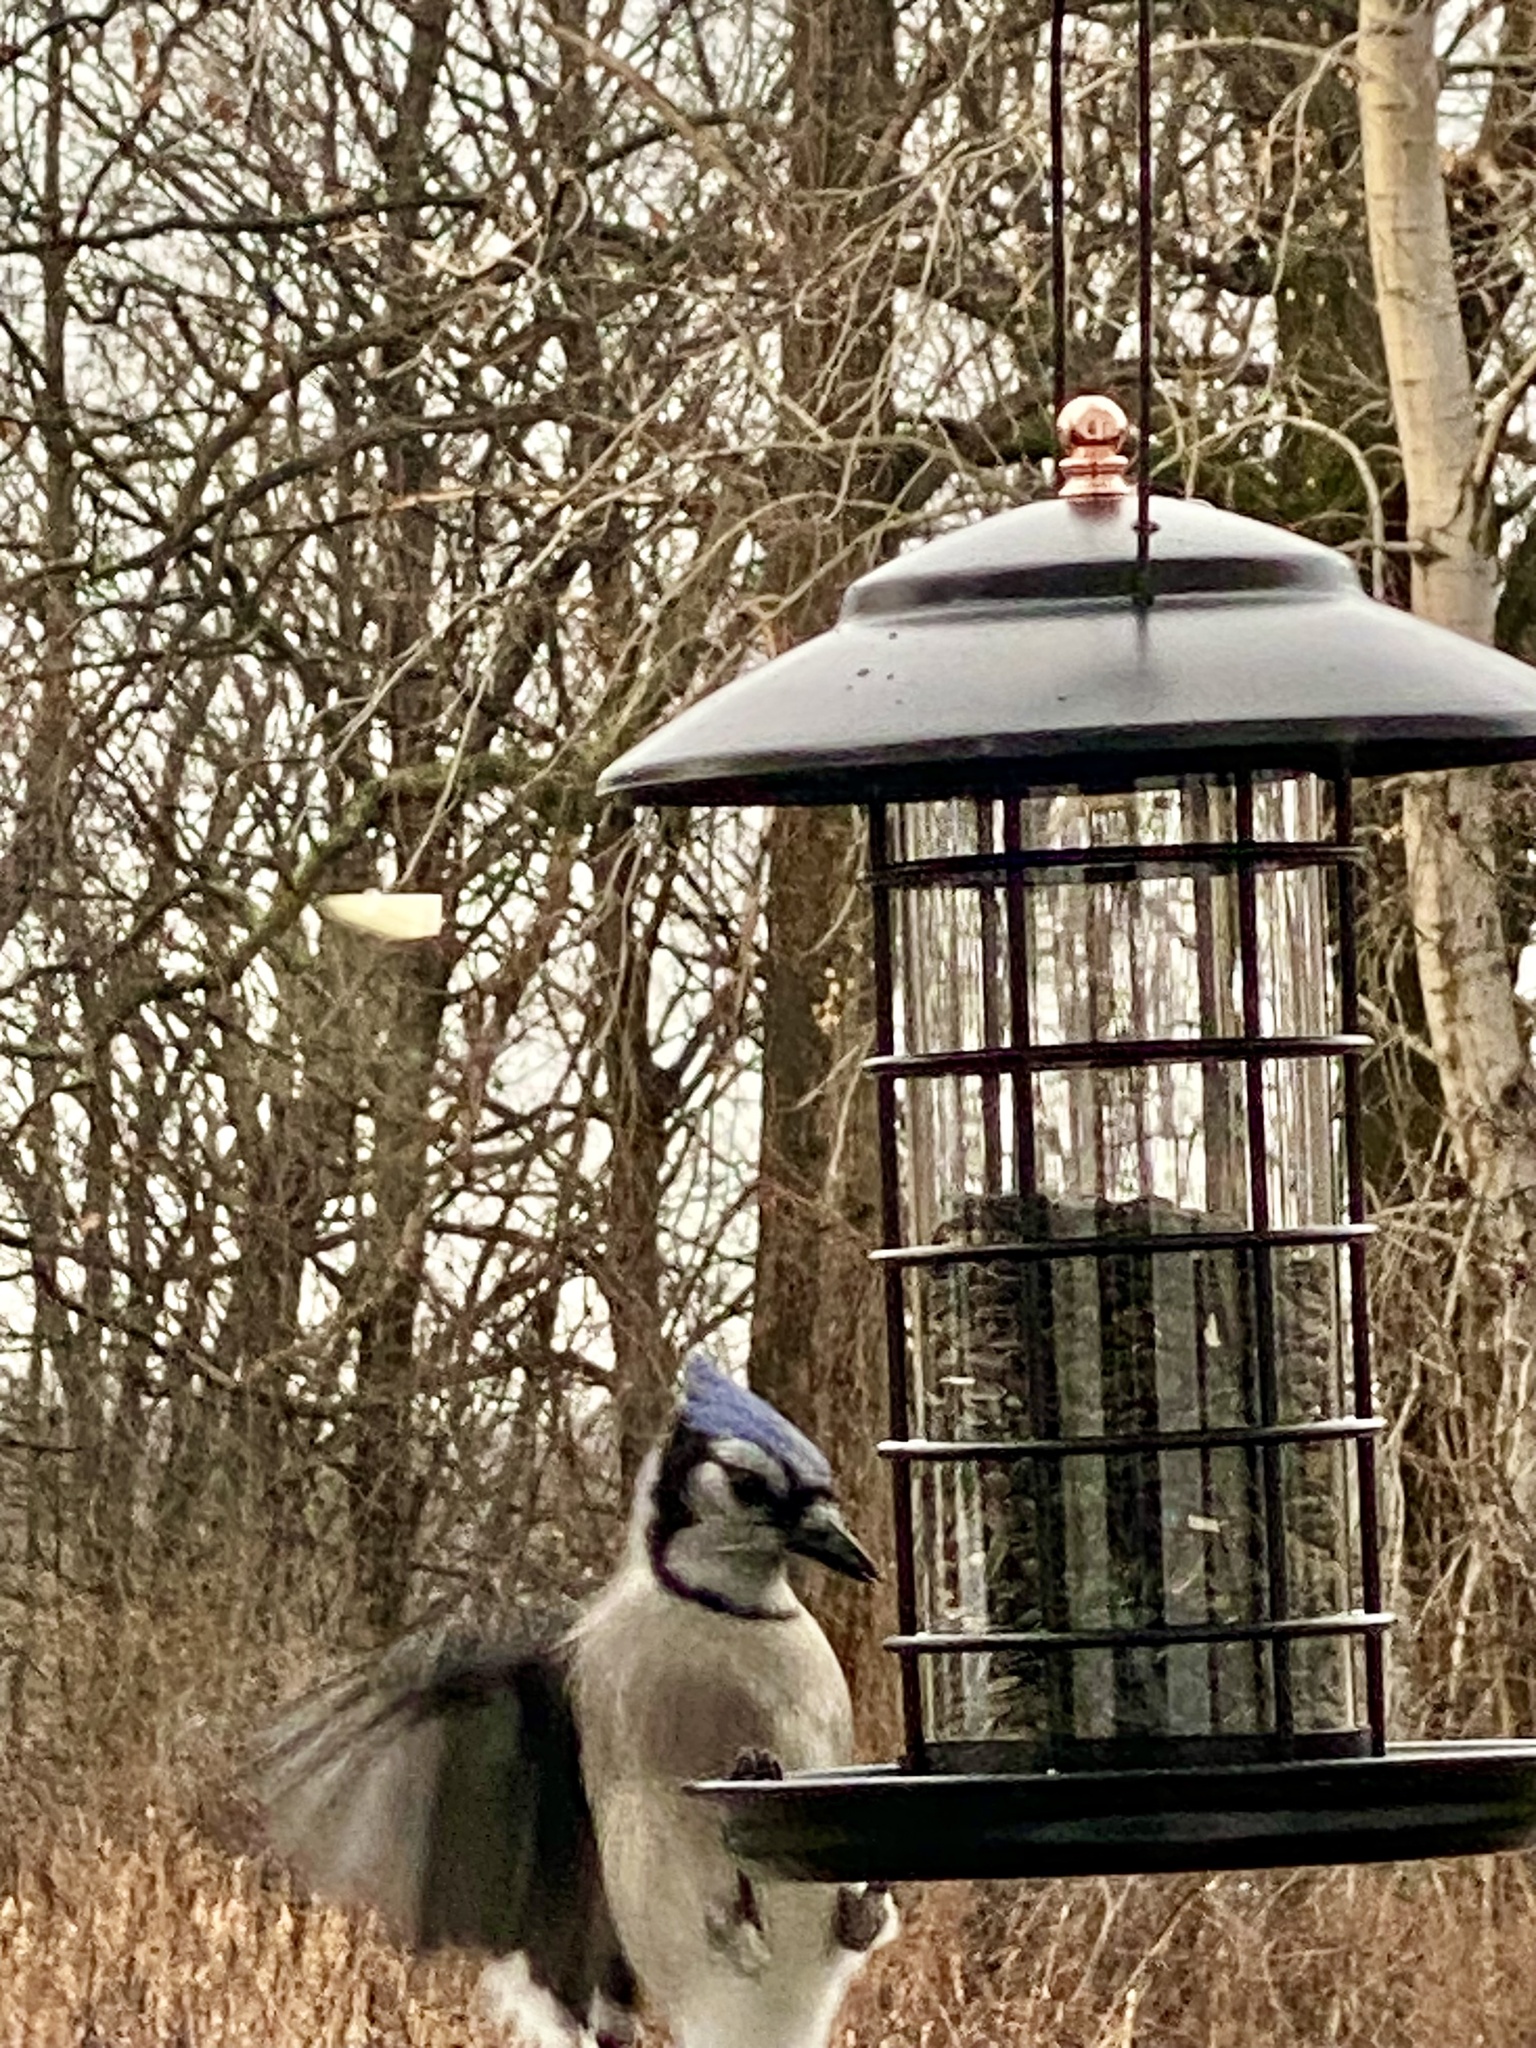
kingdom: Animalia
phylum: Chordata
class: Aves
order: Passeriformes
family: Corvidae
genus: Cyanocitta
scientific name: Cyanocitta cristata
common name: Blue jay
